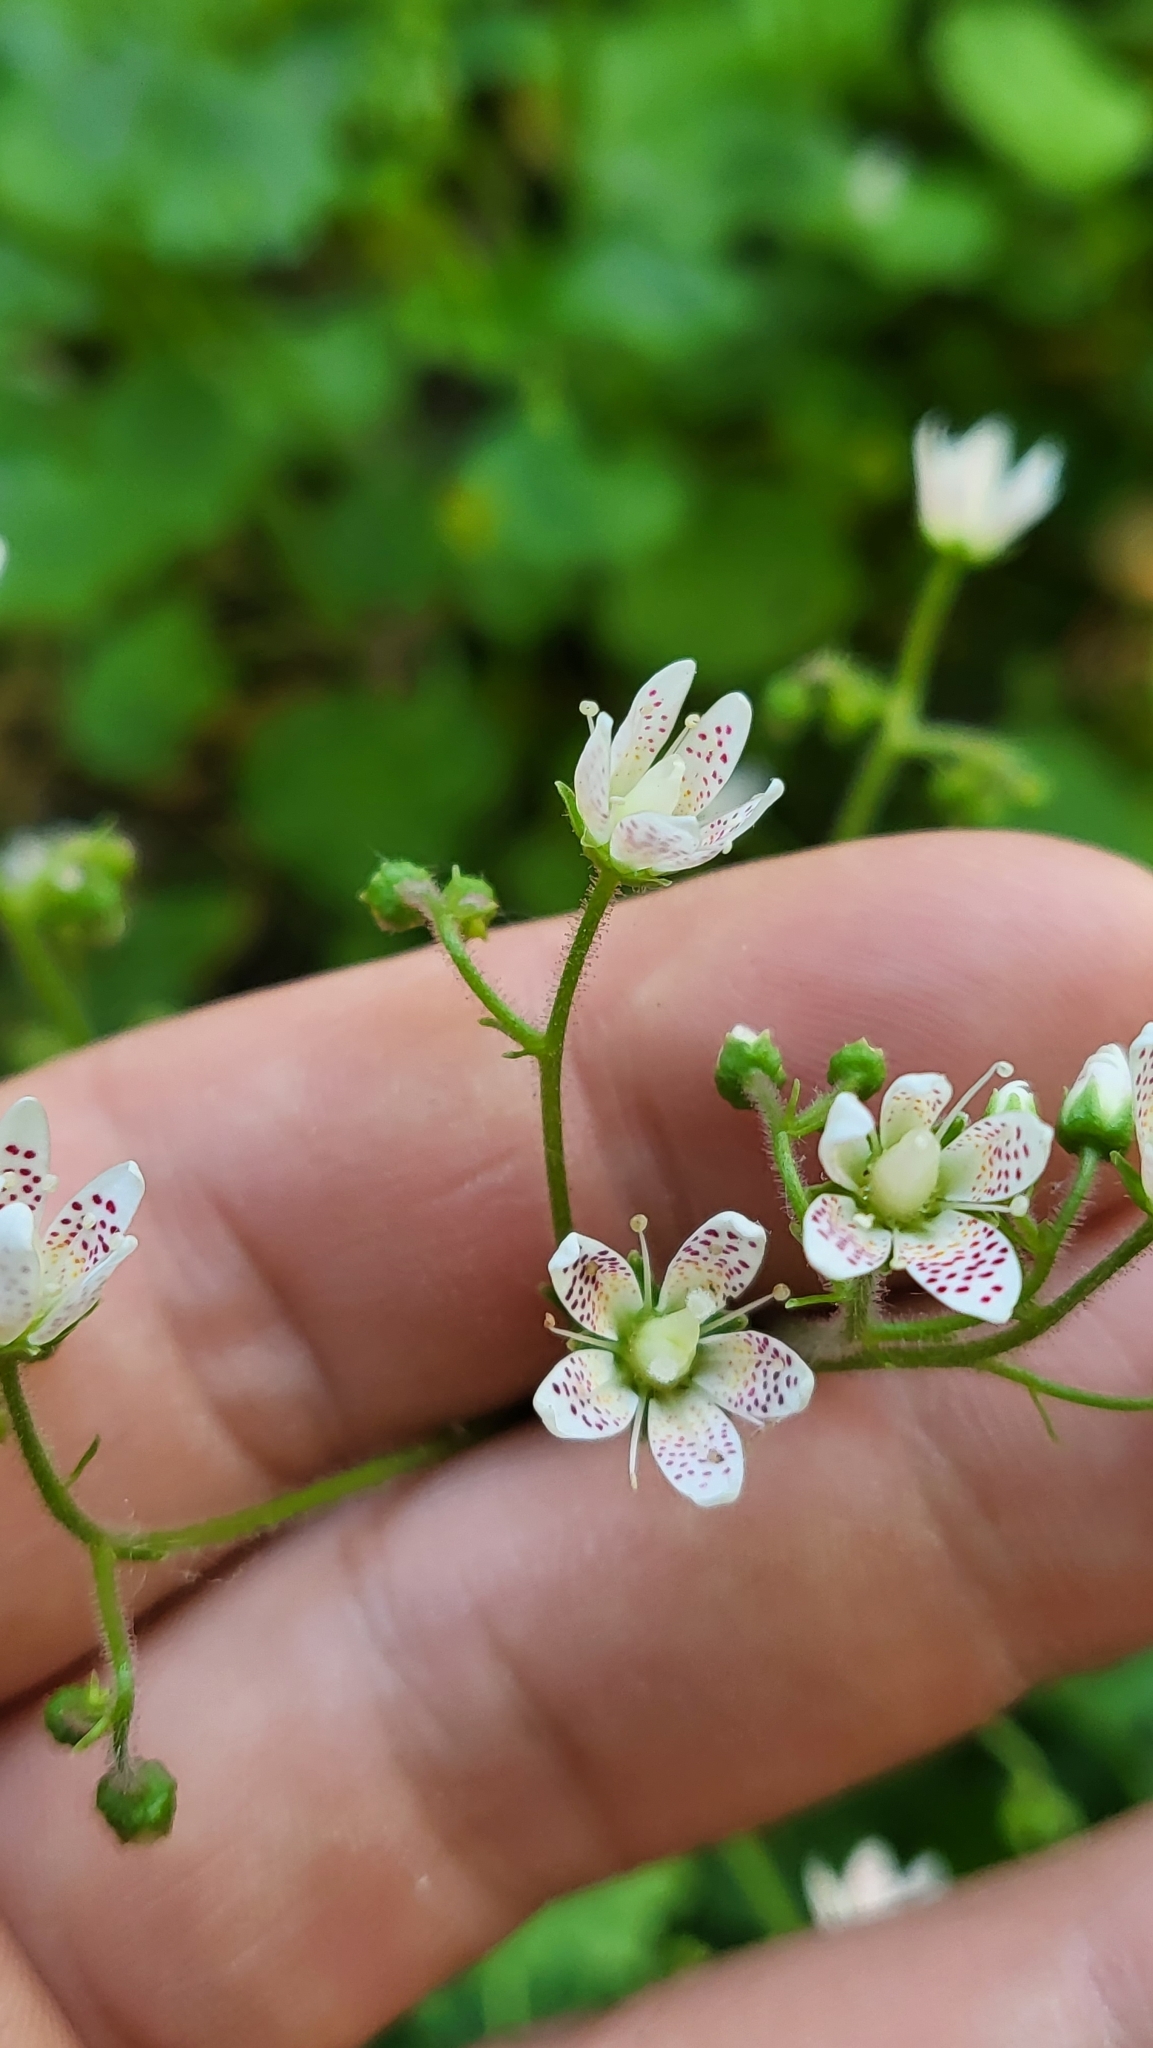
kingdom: Plantae
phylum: Tracheophyta
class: Magnoliopsida
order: Saxifragales
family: Saxifragaceae
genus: Saxifraga
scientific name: Saxifraga rotundifolia
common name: Round-leaved saxifrage
